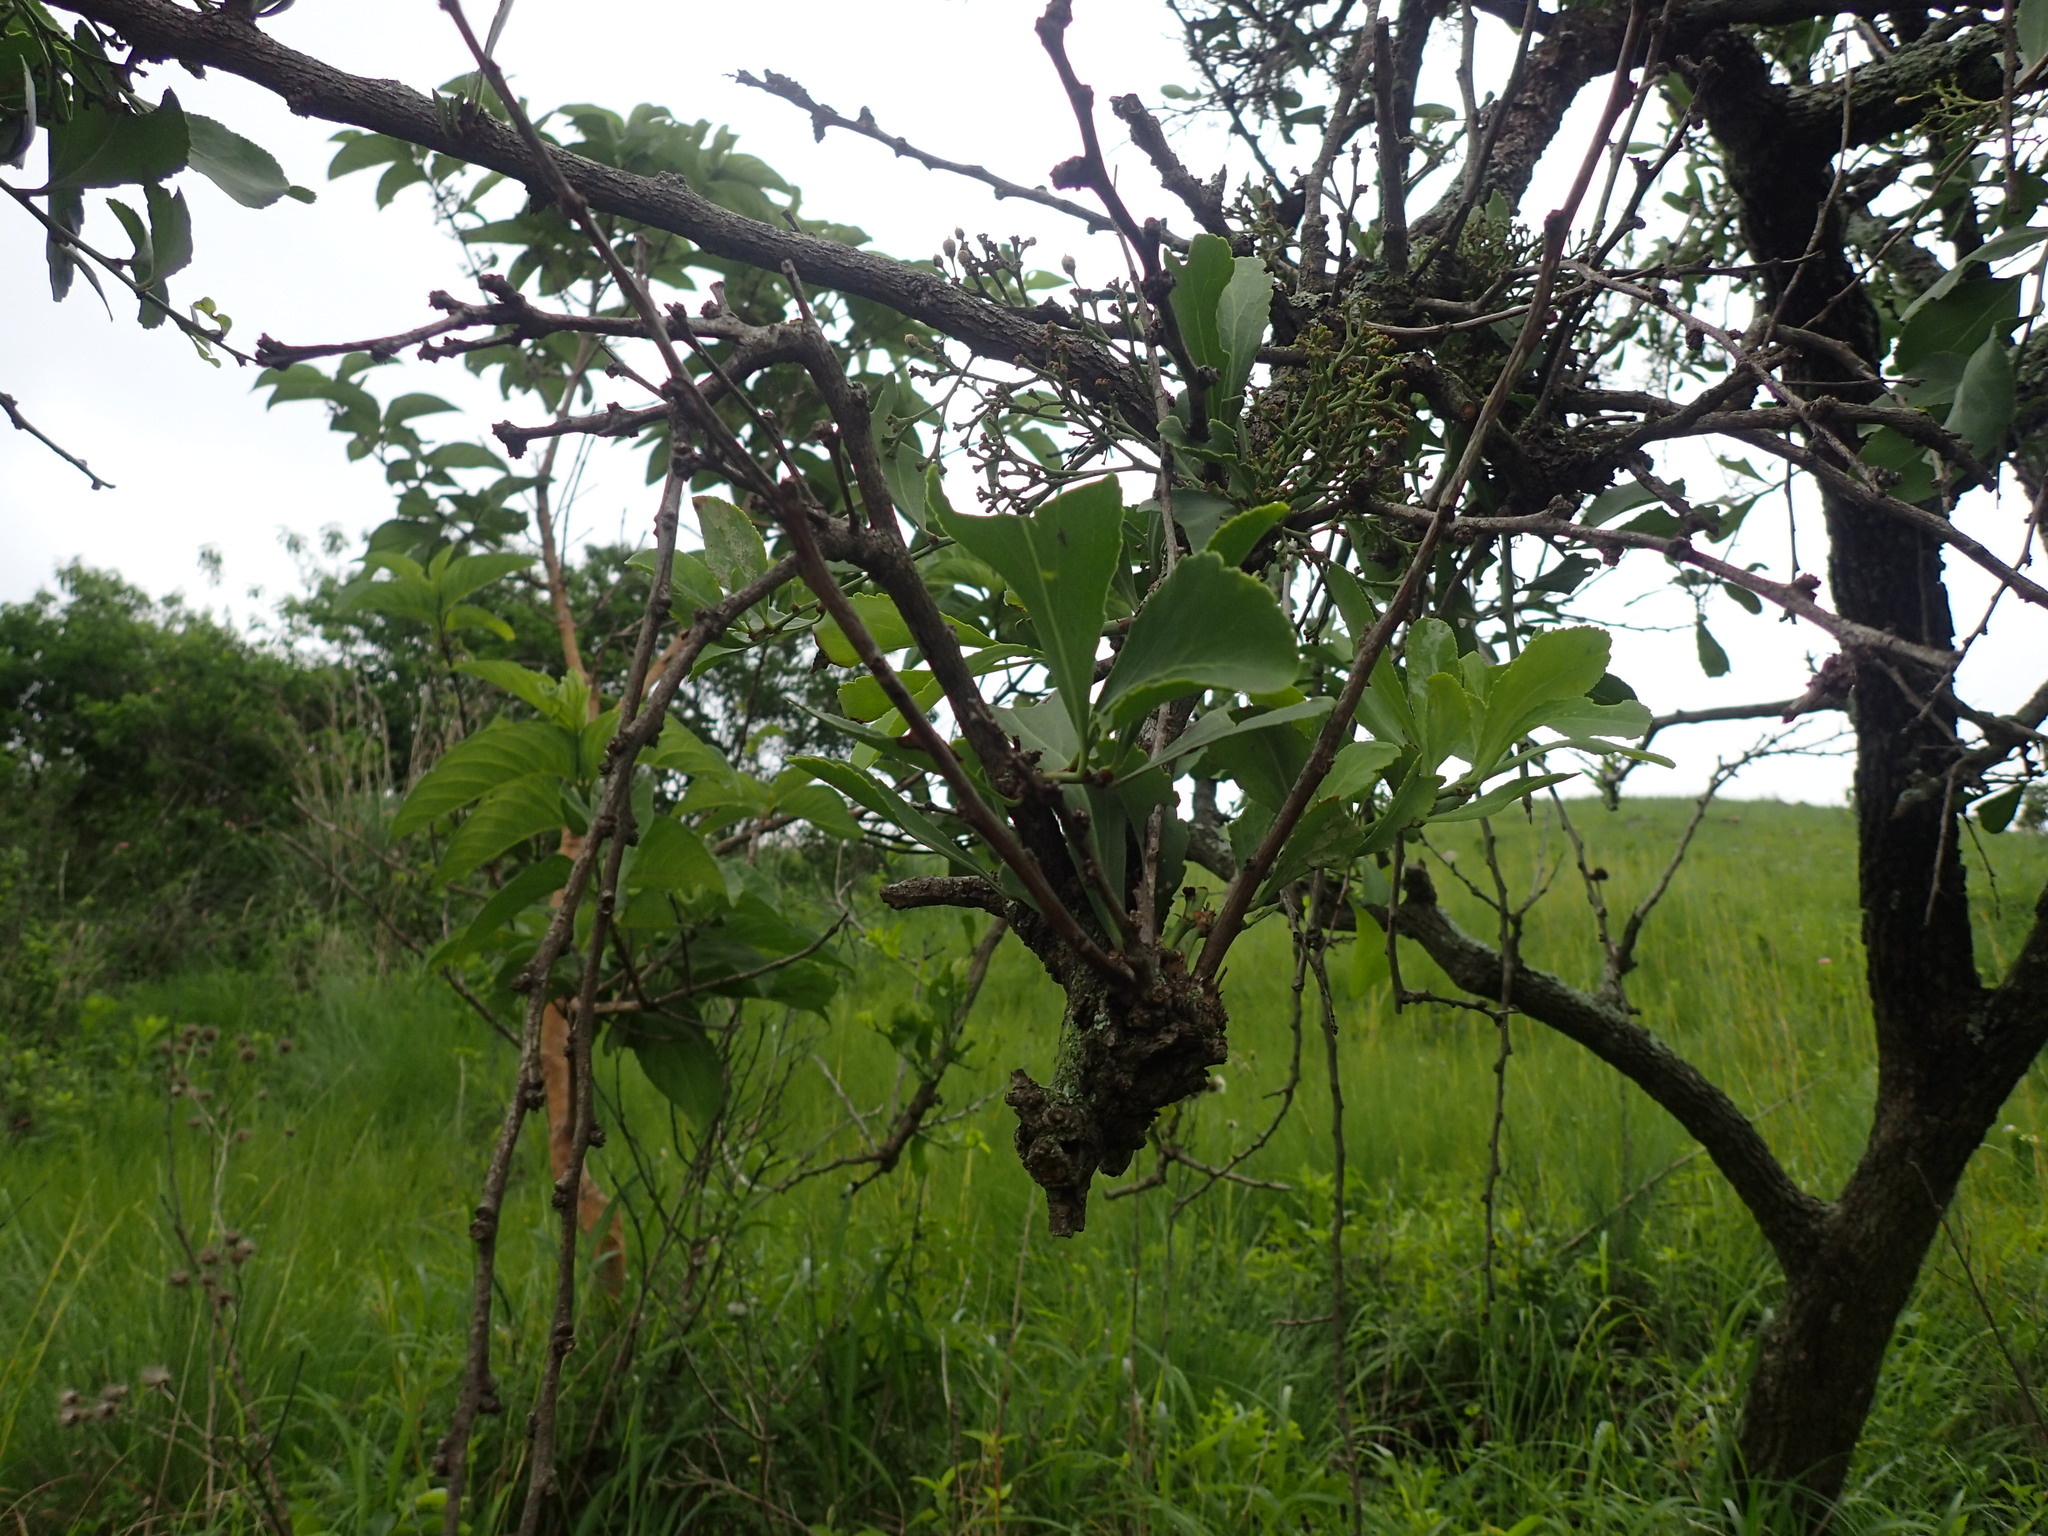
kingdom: Plantae
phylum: Tracheophyta
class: Magnoliopsida
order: Celastrales
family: Celastraceae
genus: Gymnosporia
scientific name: Gymnosporia glaucophylla
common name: Blue spike-thorn
